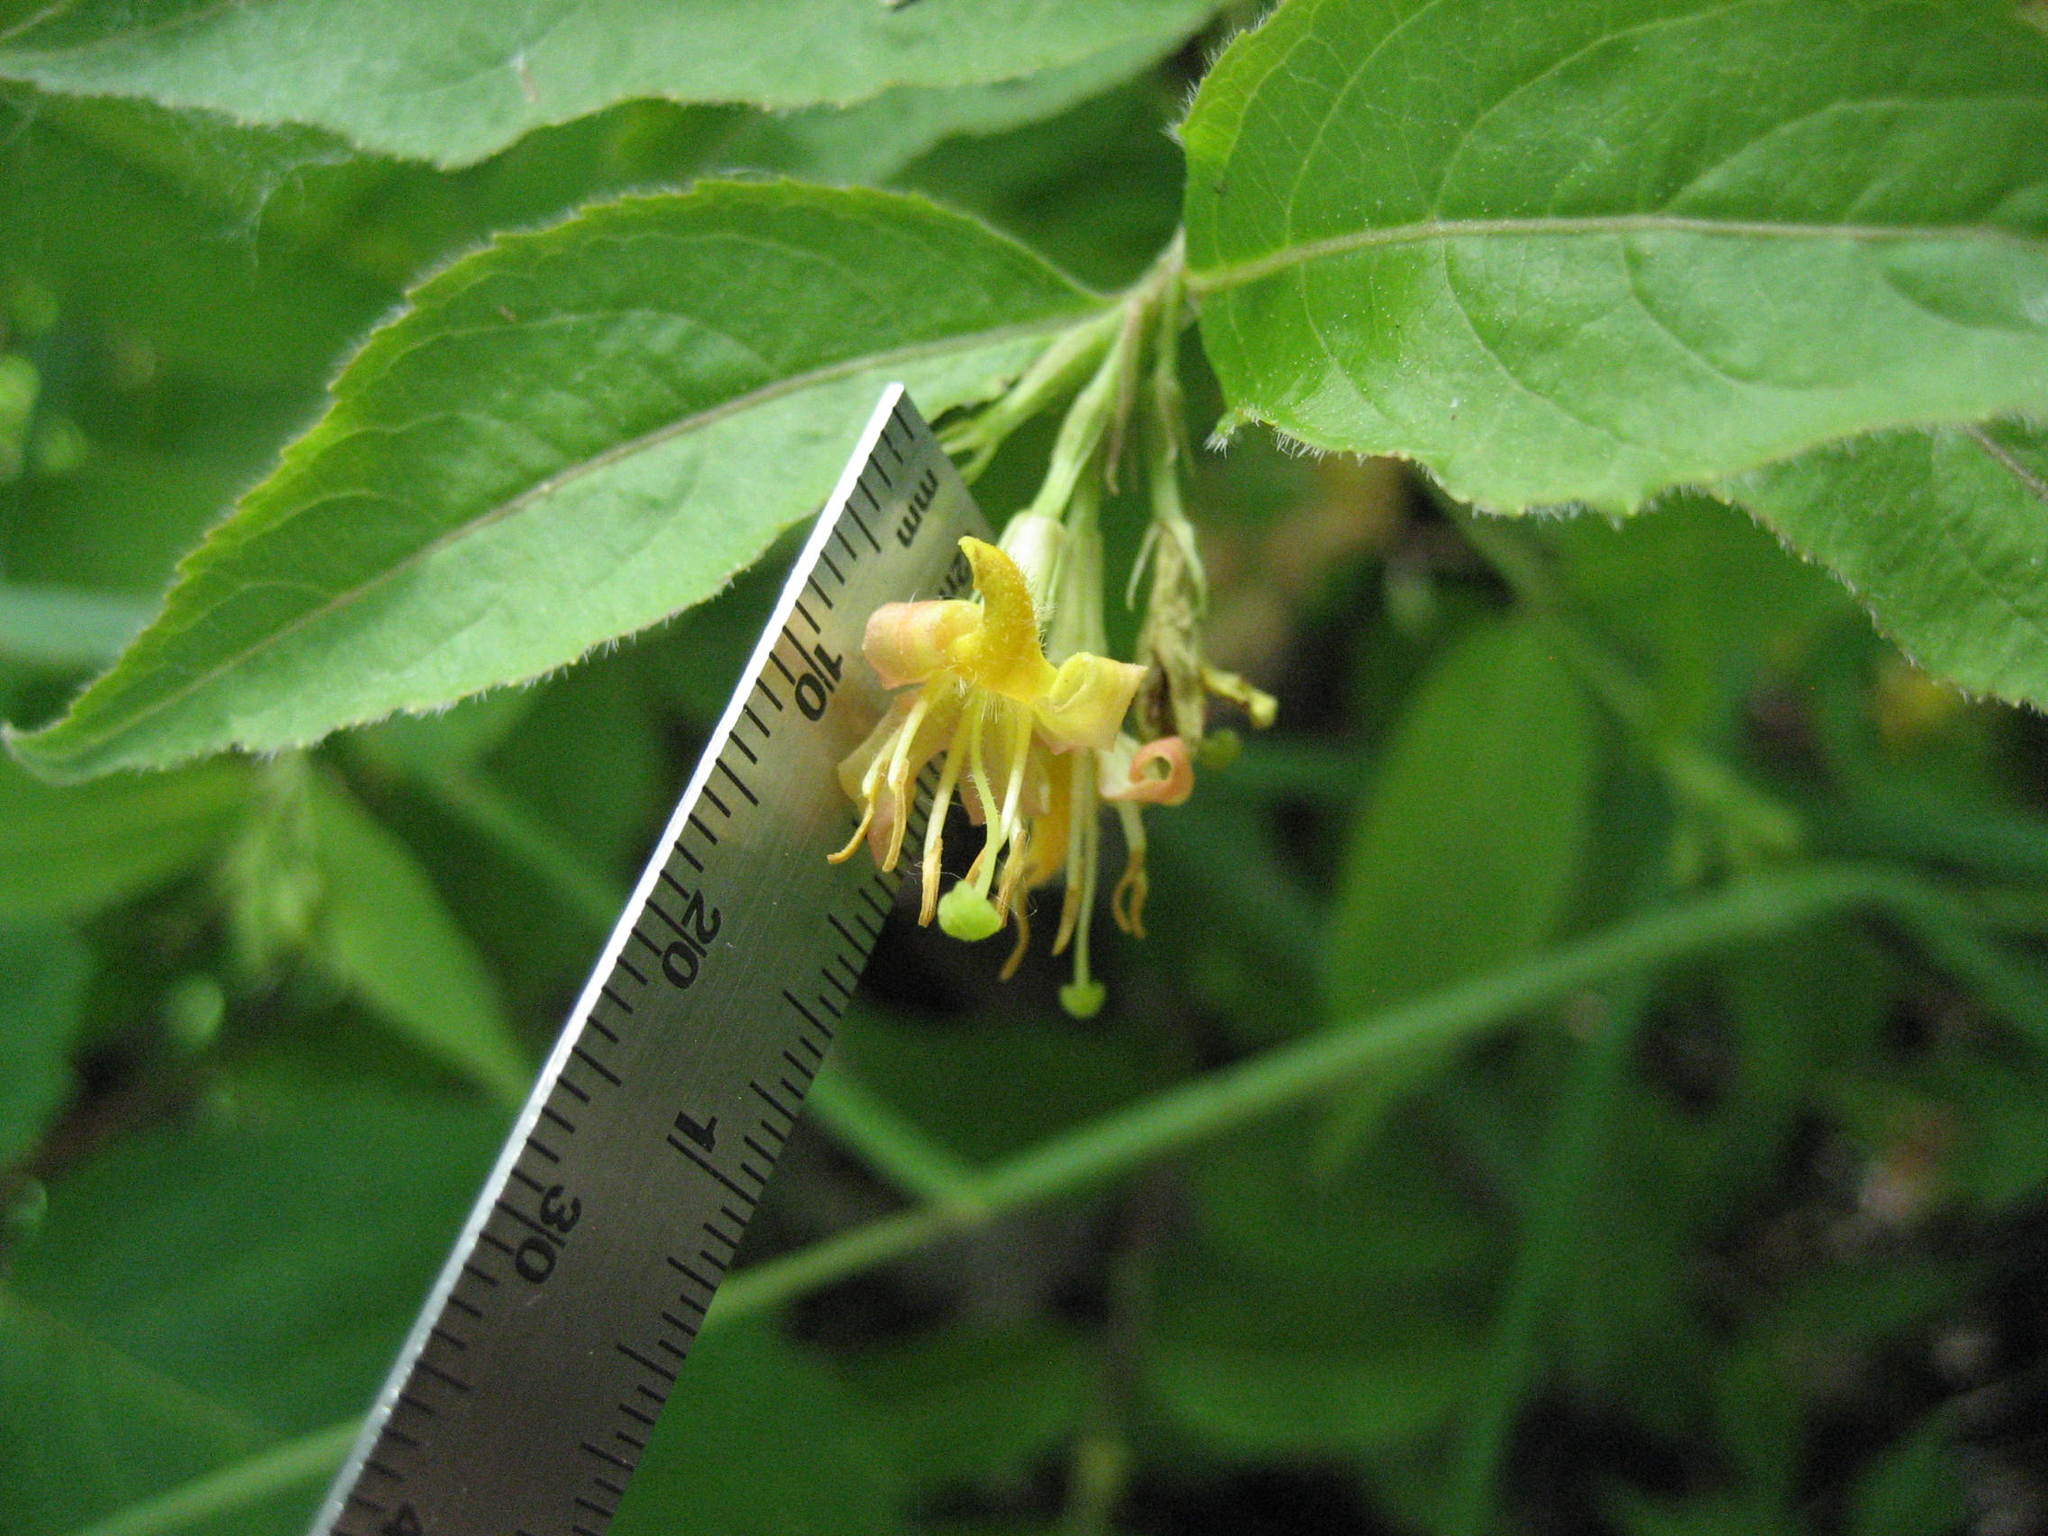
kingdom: Plantae
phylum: Tracheophyta
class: Magnoliopsida
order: Dipsacales
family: Caprifoliaceae
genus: Diervilla
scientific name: Diervilla lonicera
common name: Bush-honeysuckle
